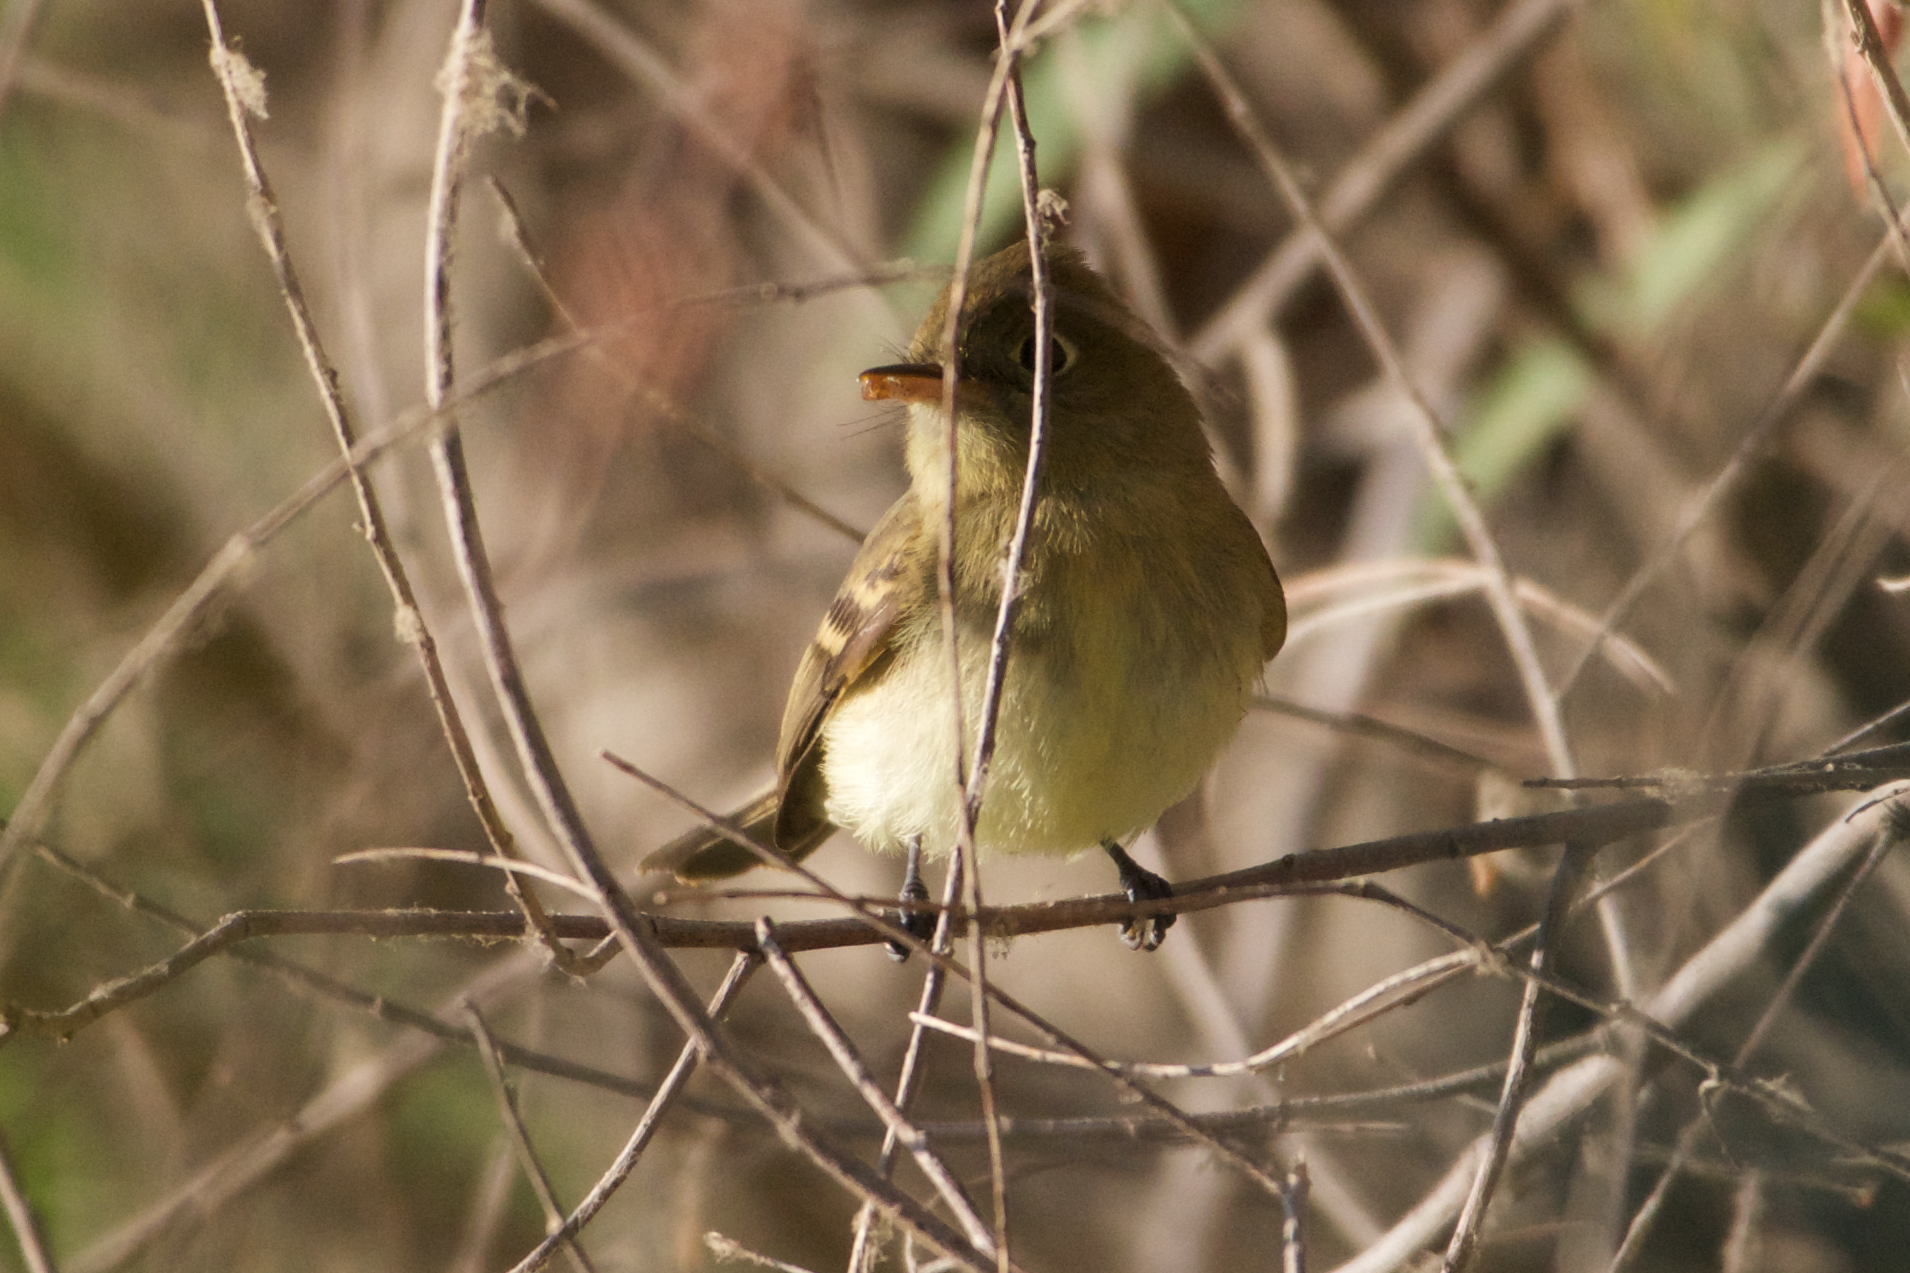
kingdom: Animalia
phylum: Chordata
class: Aves
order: Passeriformes
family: Tyrannidae
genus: Empidonax
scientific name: Empidonax difficilis
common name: Pacific-slope flycatcher
